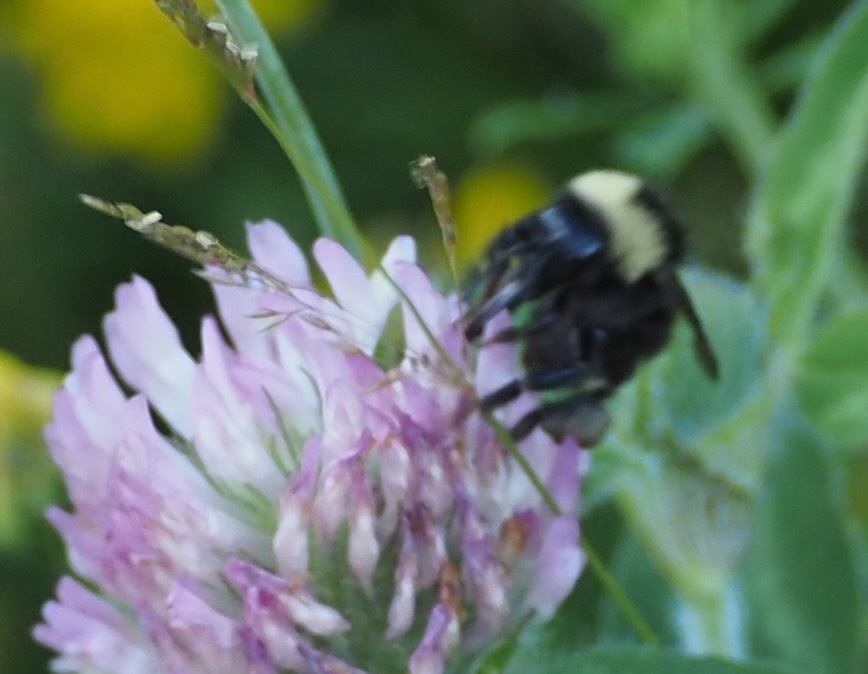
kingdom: Animalia
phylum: Arthropoda
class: Insecta
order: Hymenoptera
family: Apidae
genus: Bombus
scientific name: Bombus californicus
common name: California bumble bee
